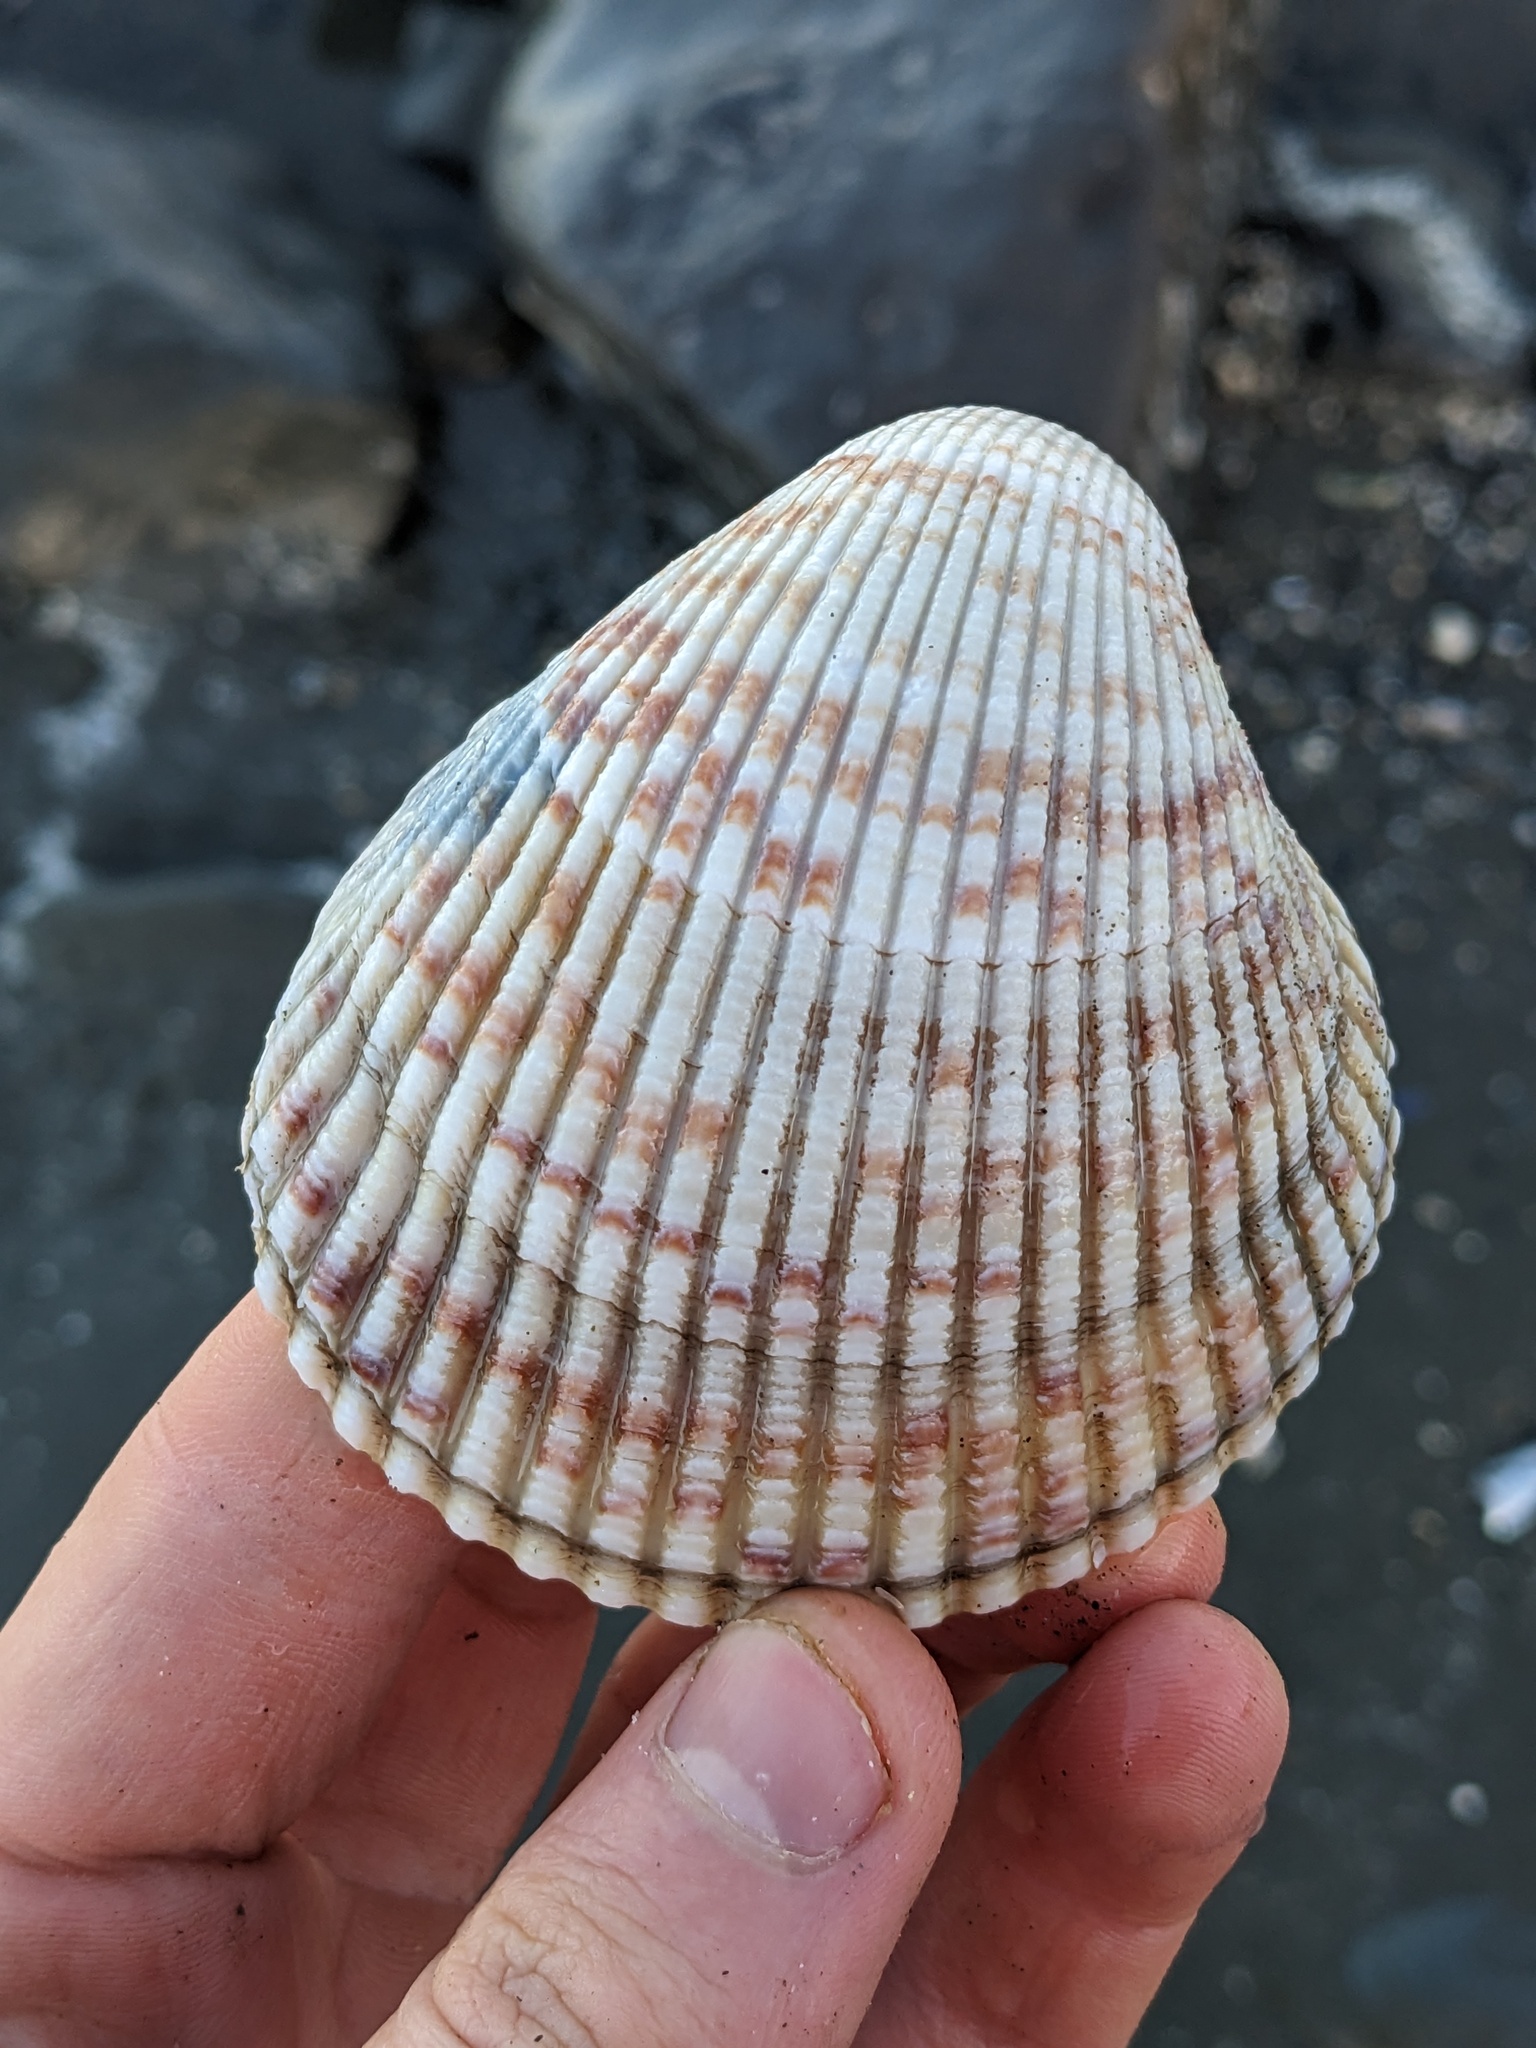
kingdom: Animalia
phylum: Mollusca
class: Bivalvia
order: Cardiida
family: Cardiidae
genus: Clinocardium
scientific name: Clinocardium nuttallii
